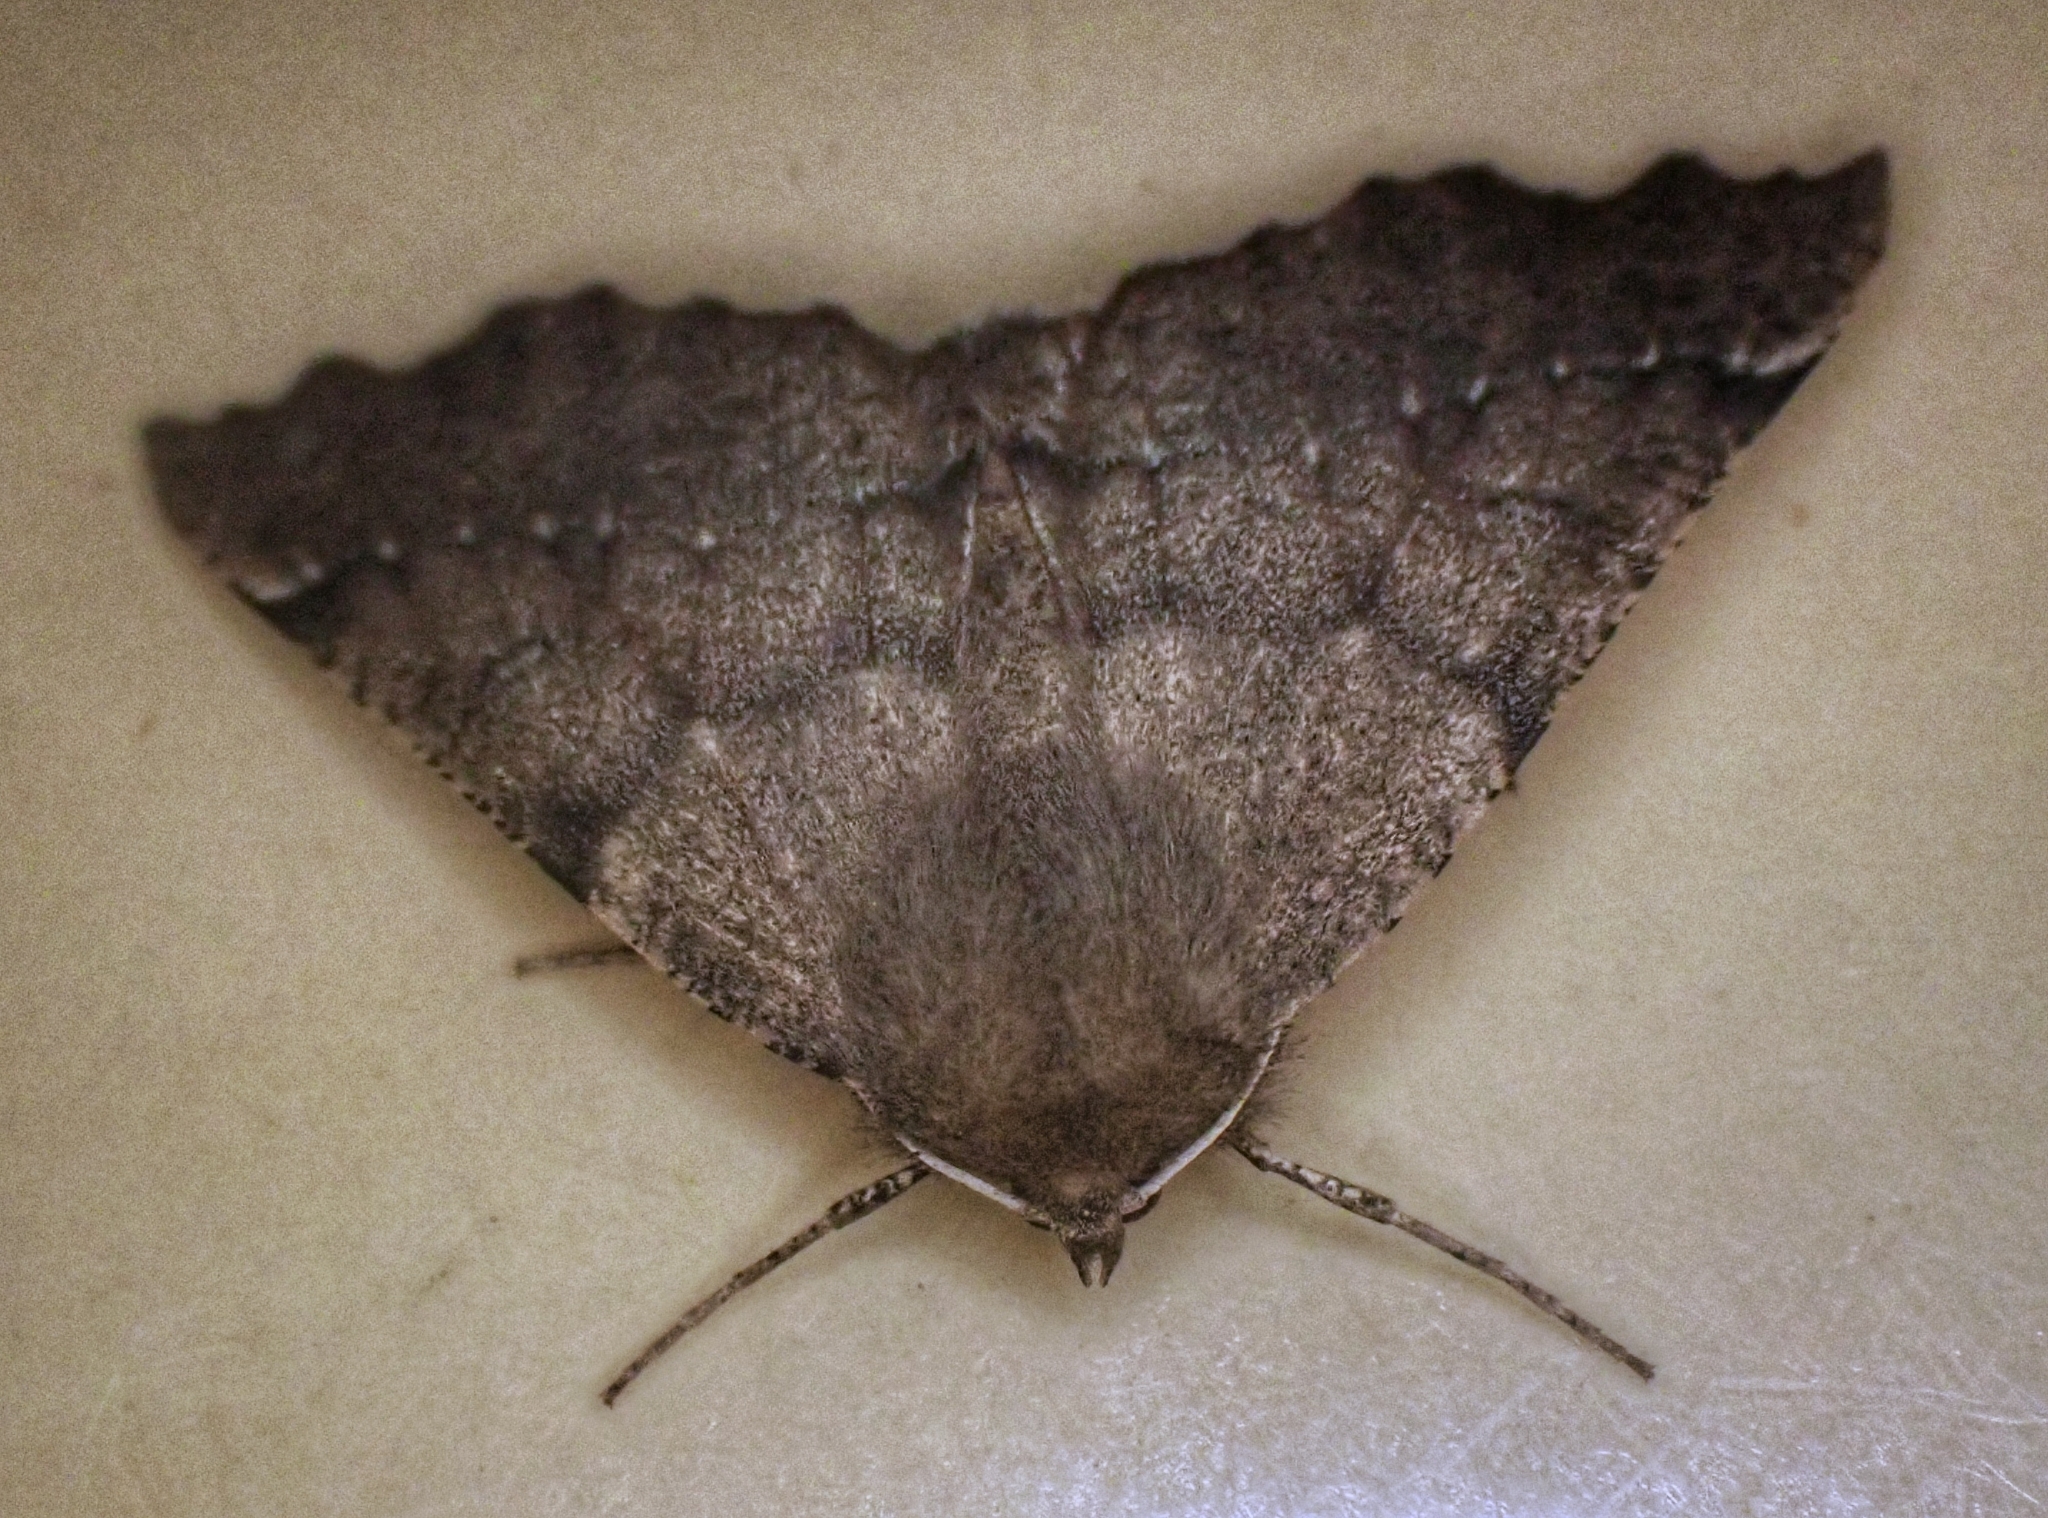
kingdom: Animalia
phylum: Arthropoda
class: Insecta
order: Lepidoptera
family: Geometridae
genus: Odontopera
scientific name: Odontopera bidentata
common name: Scalloped hazel
